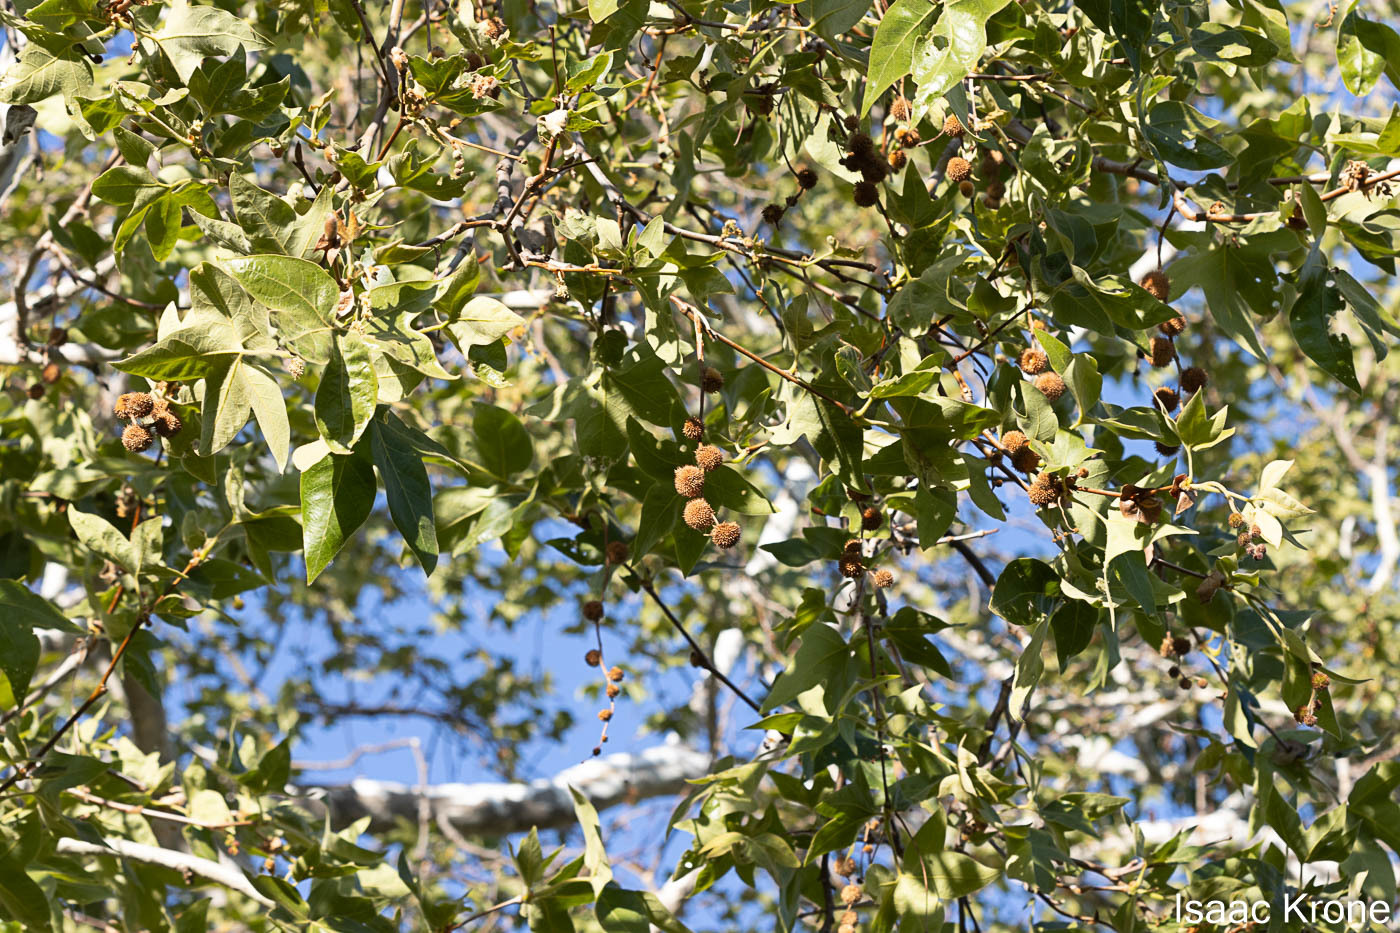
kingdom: Plantae
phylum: Tracheophyta
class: Magnoliopsida
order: Proteales
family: Platanaceae
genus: Platanus
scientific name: Platanus racemosa
